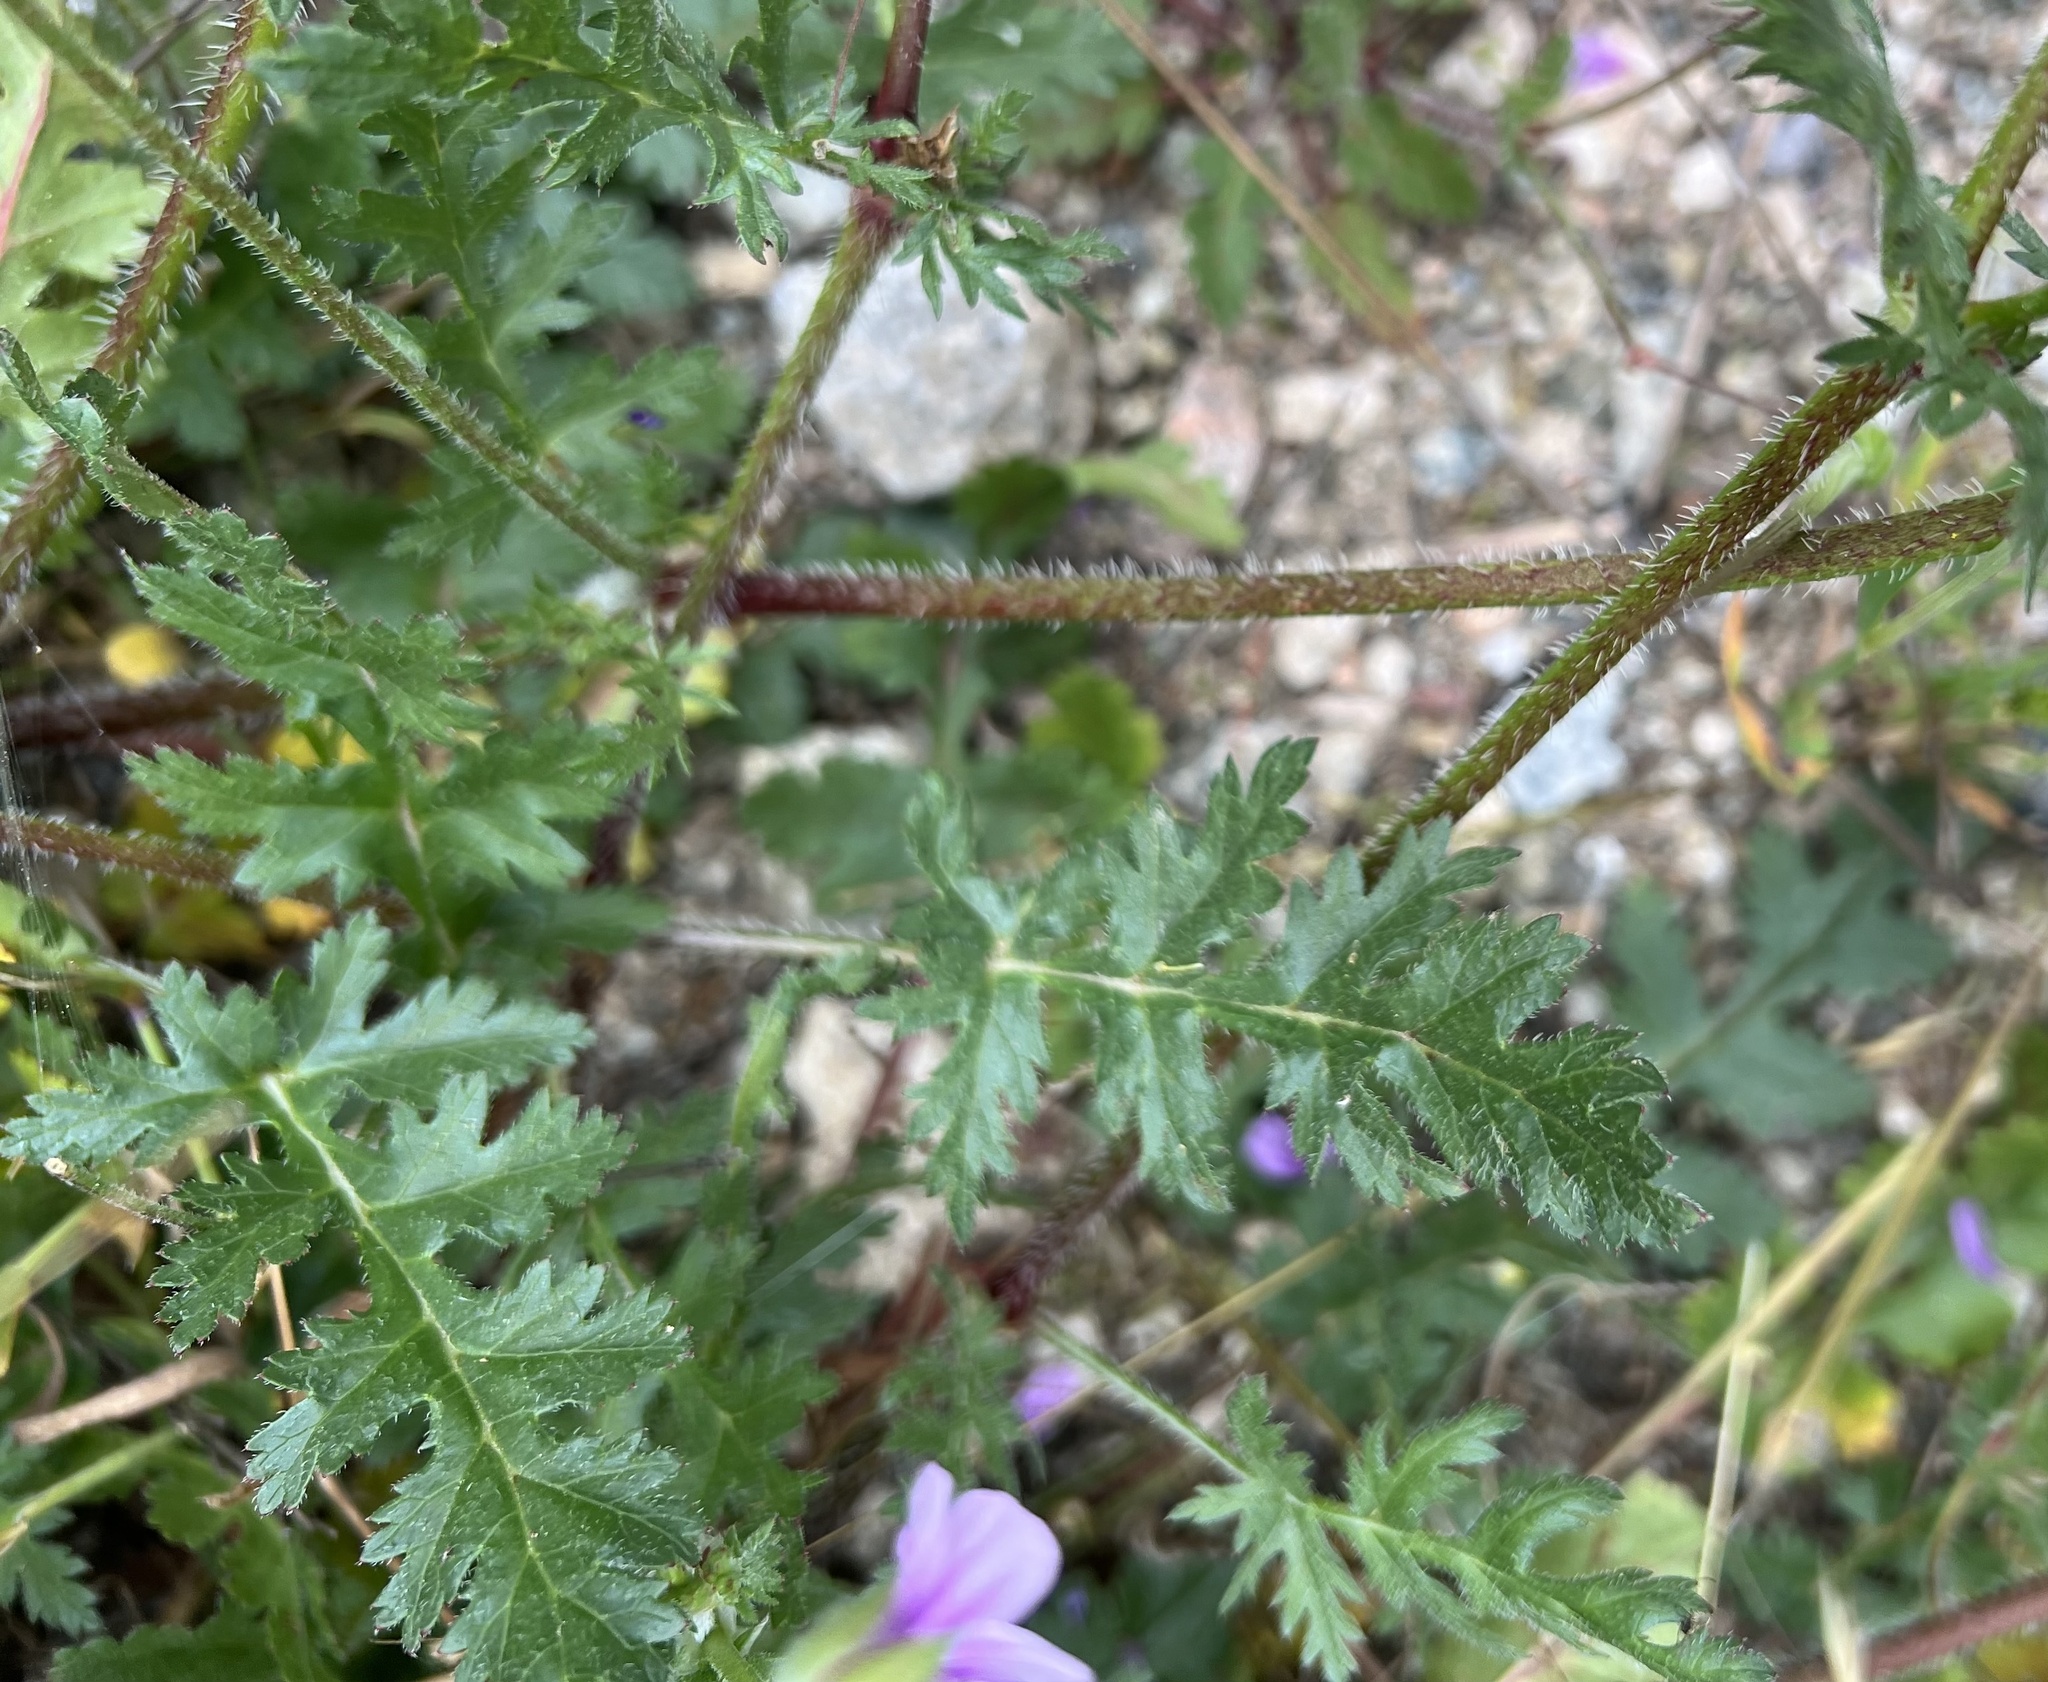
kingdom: Plantae
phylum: Tracheophyta
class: Magnoliopsida
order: Geraniales
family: Geraniaceae
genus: Erodium
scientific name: Erodium botrys
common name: Mediterranean stork's-bill
